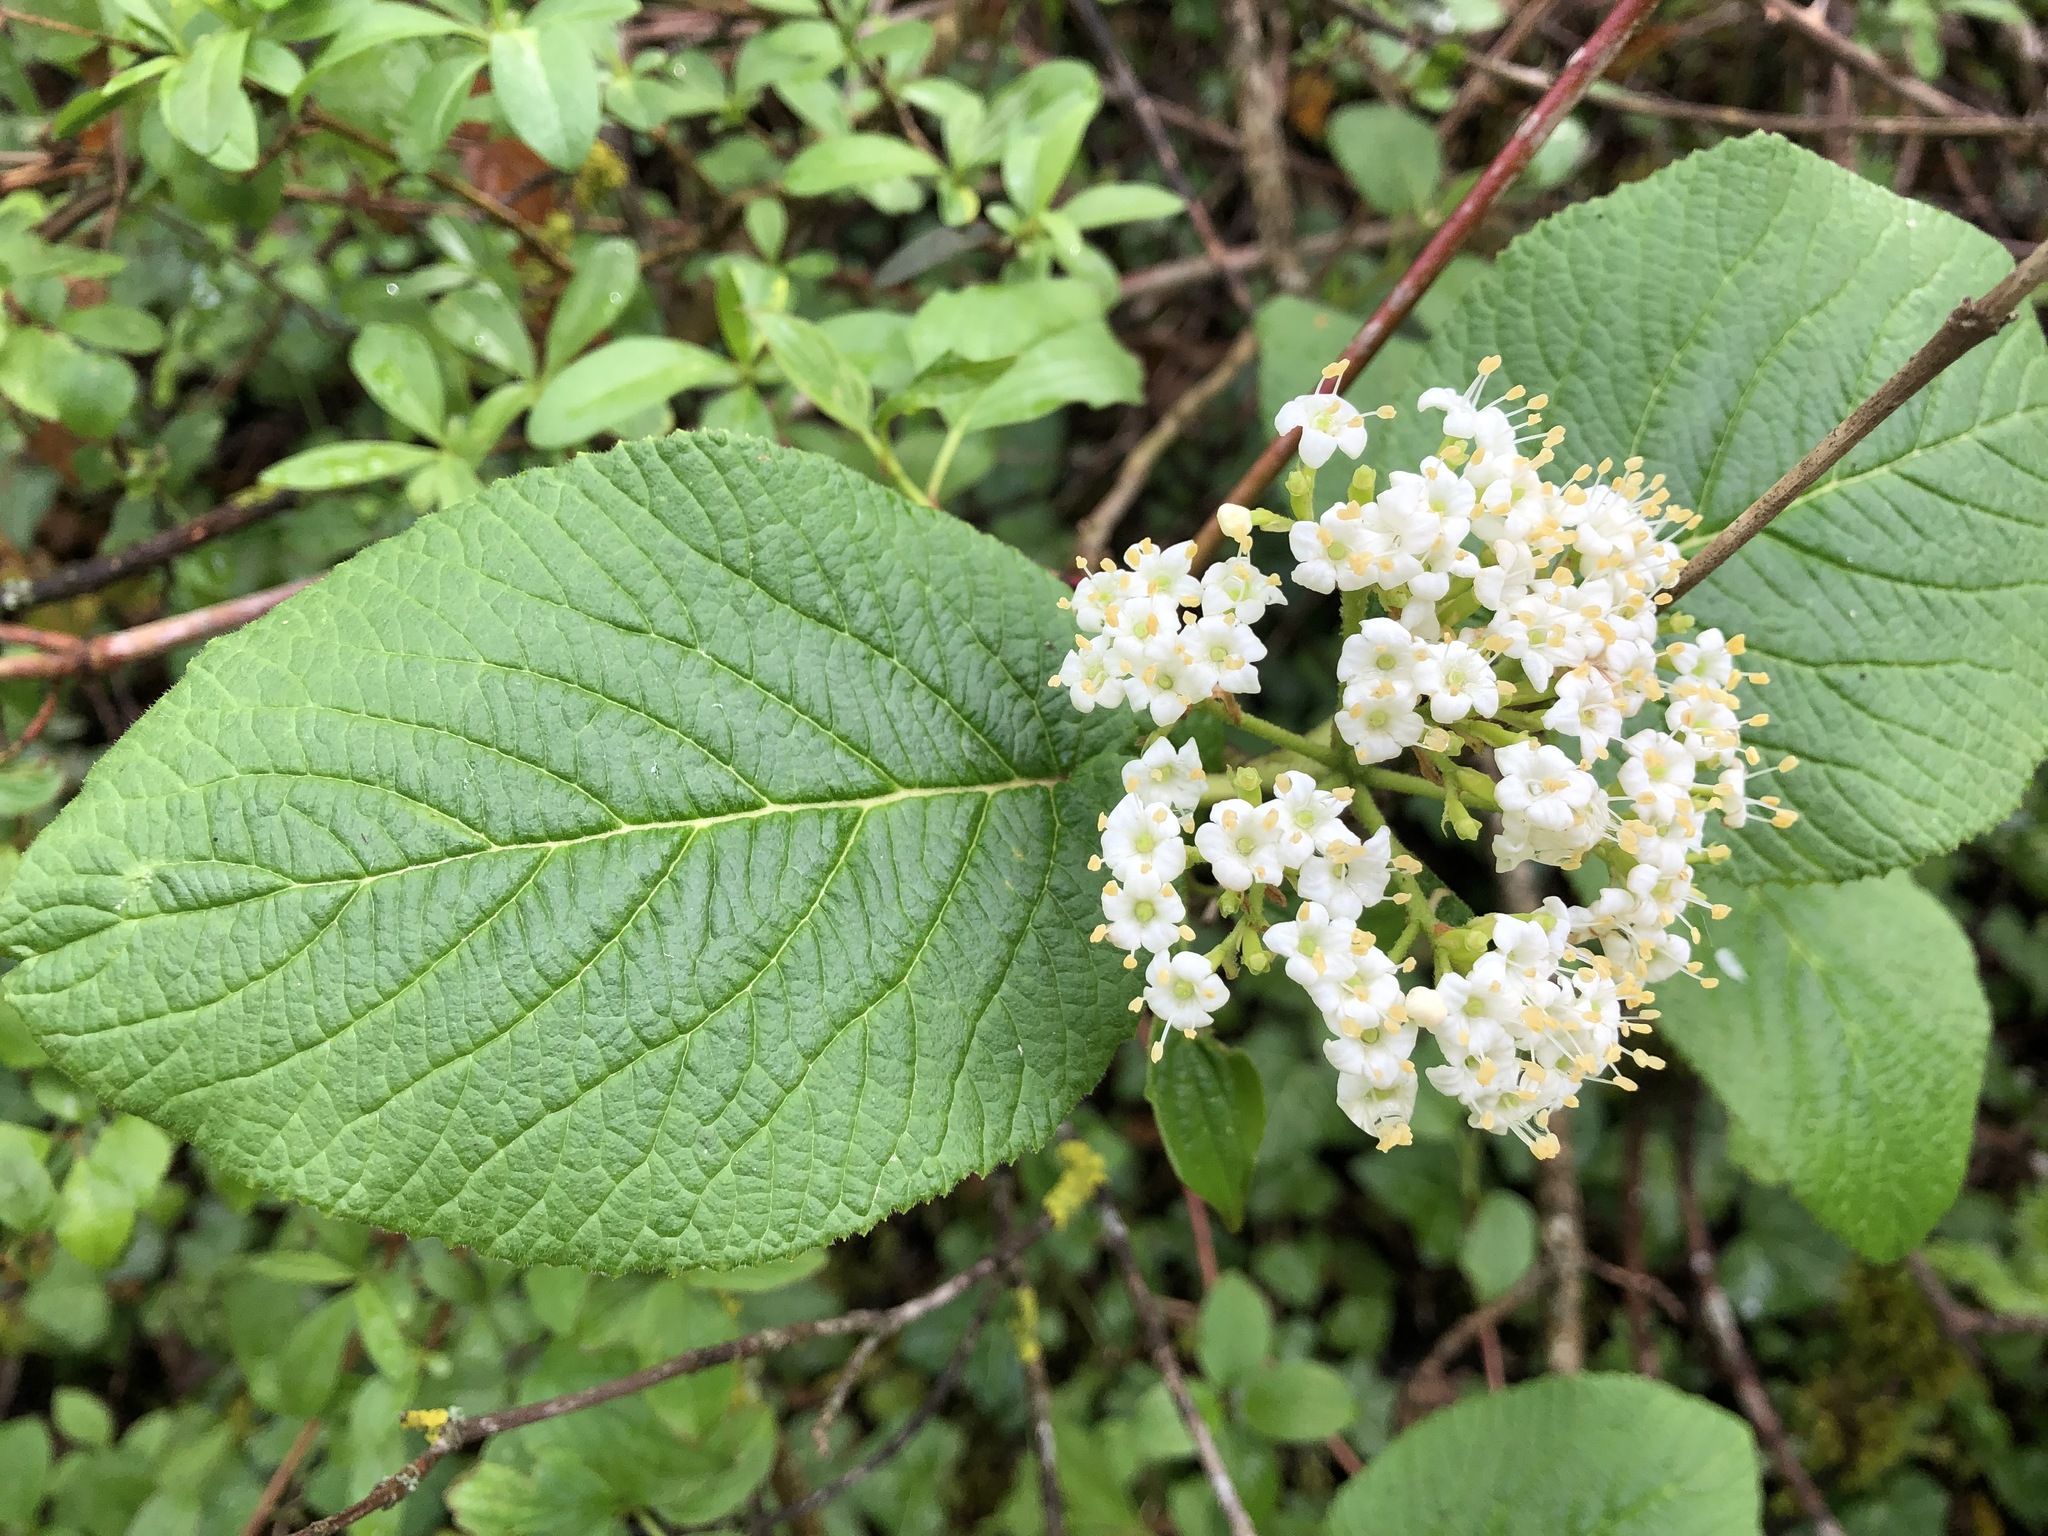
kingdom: Plantae
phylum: Tracheophyta
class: Magnoliopsida
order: Dipsacales
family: Viburnaceae
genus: Viburnum
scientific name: Viburnum lantana
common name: Wayfaring tree
